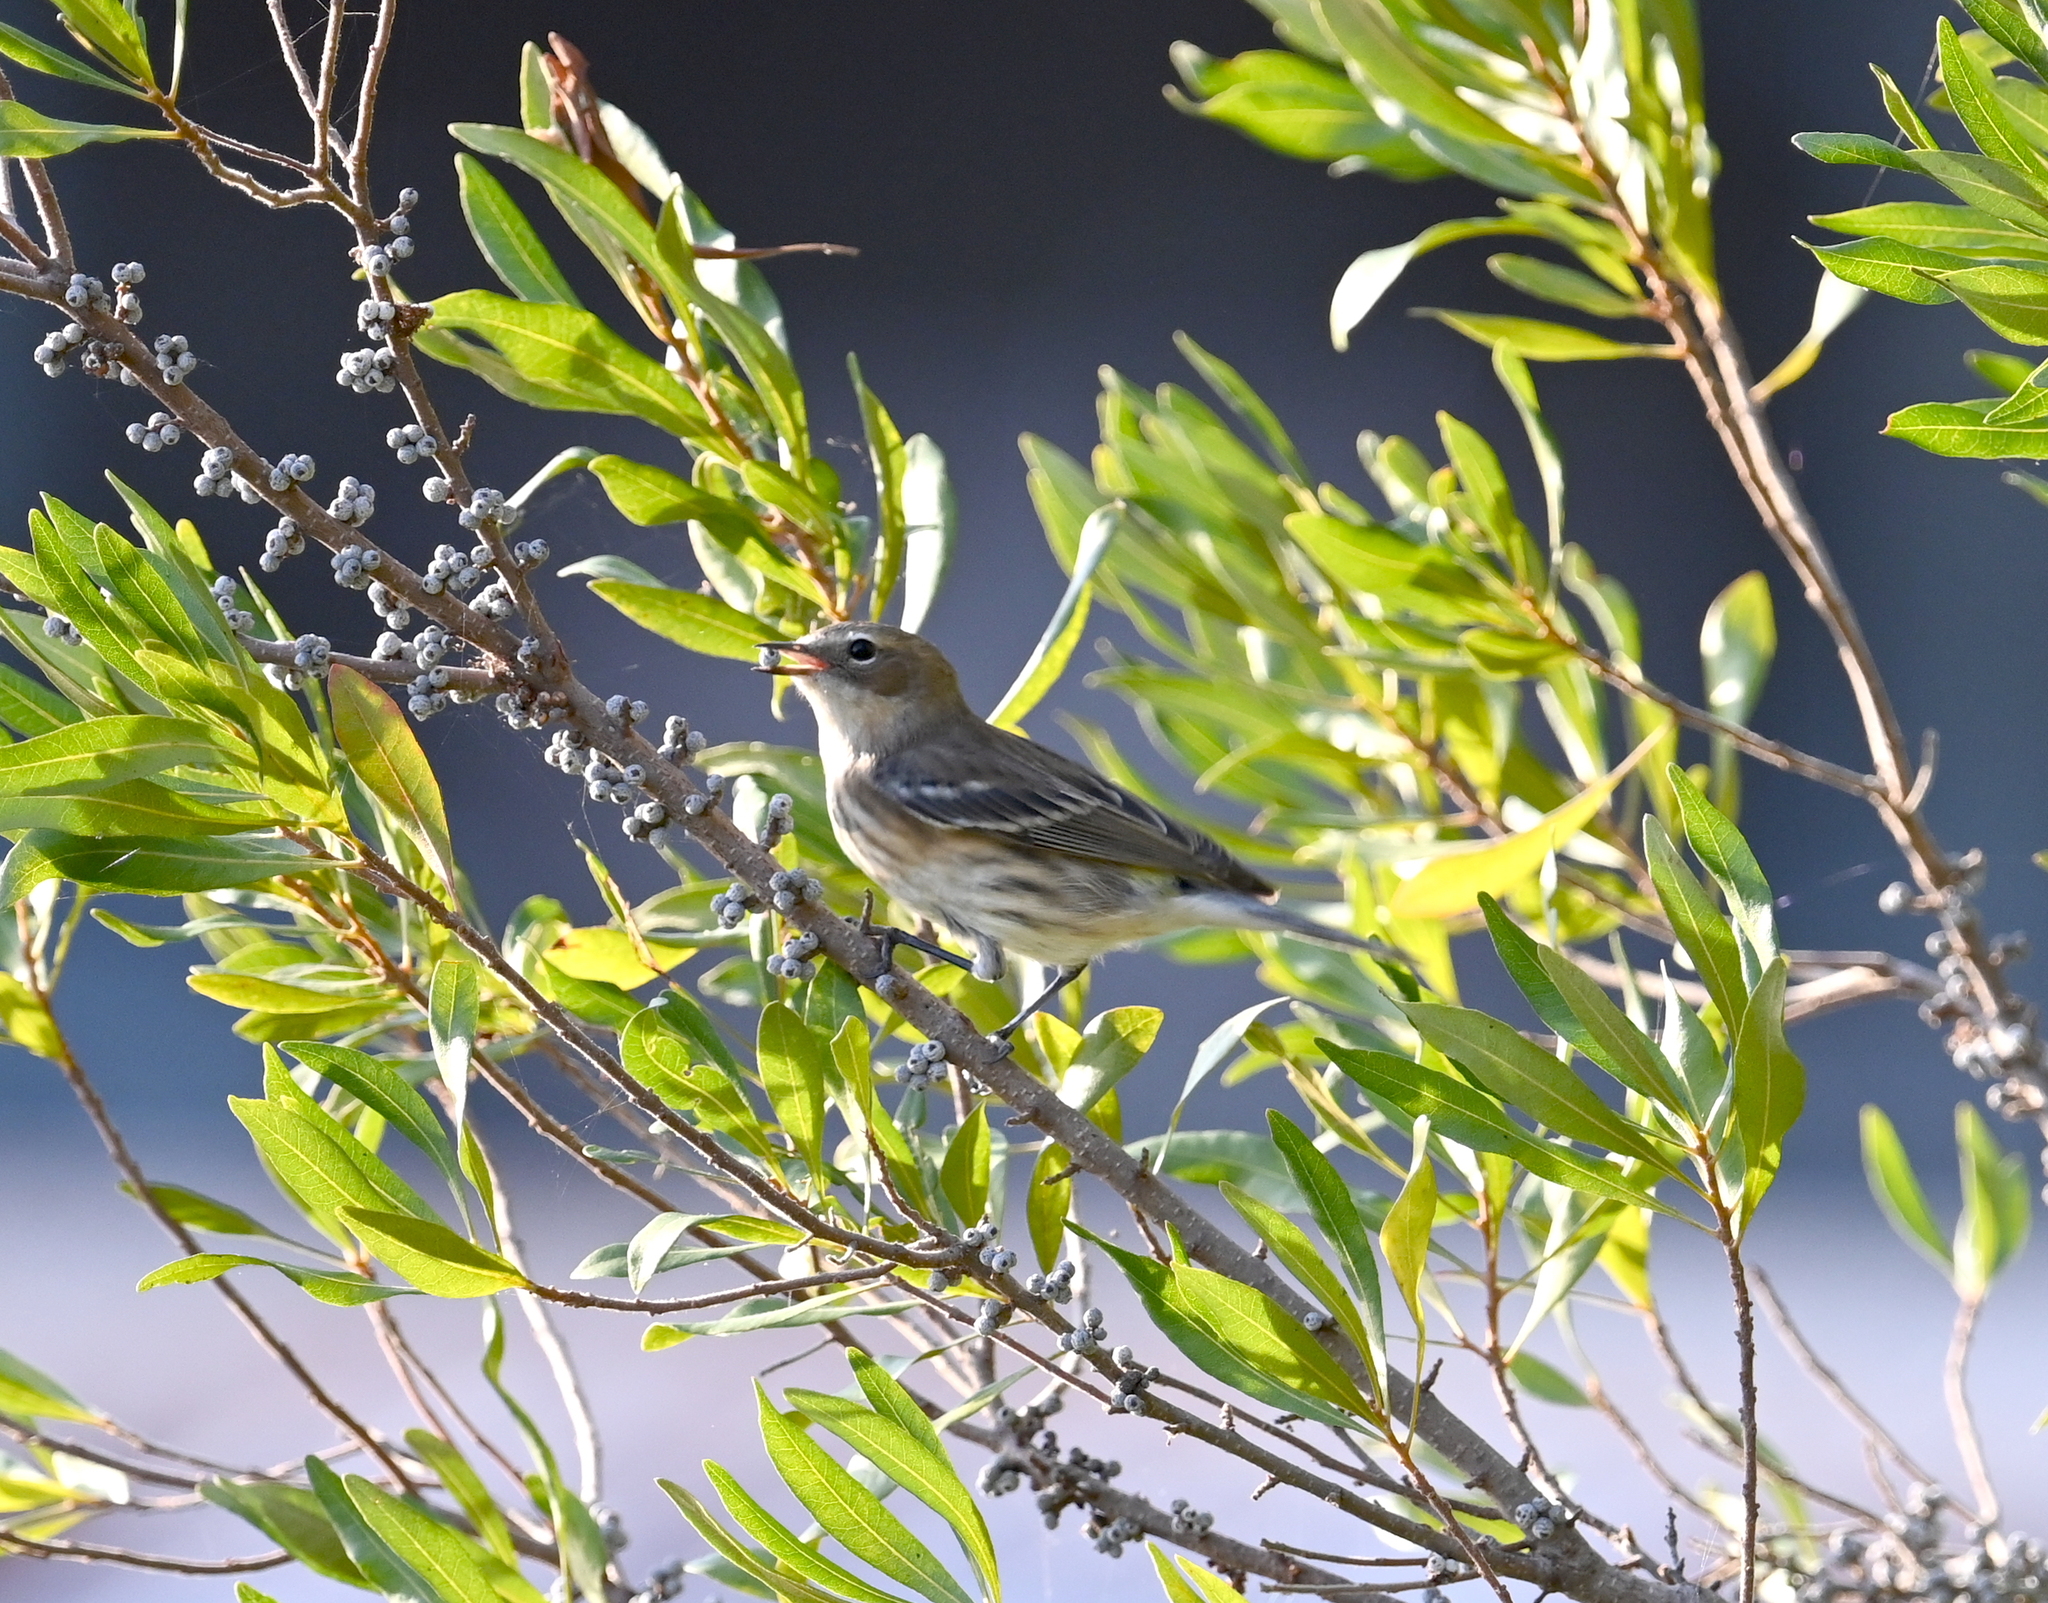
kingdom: Animalia
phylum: Chordata
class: Aves
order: Passeriformes
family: Parulidae
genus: Setophaga
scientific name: Setophaga coronata
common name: Myrtle warbler
